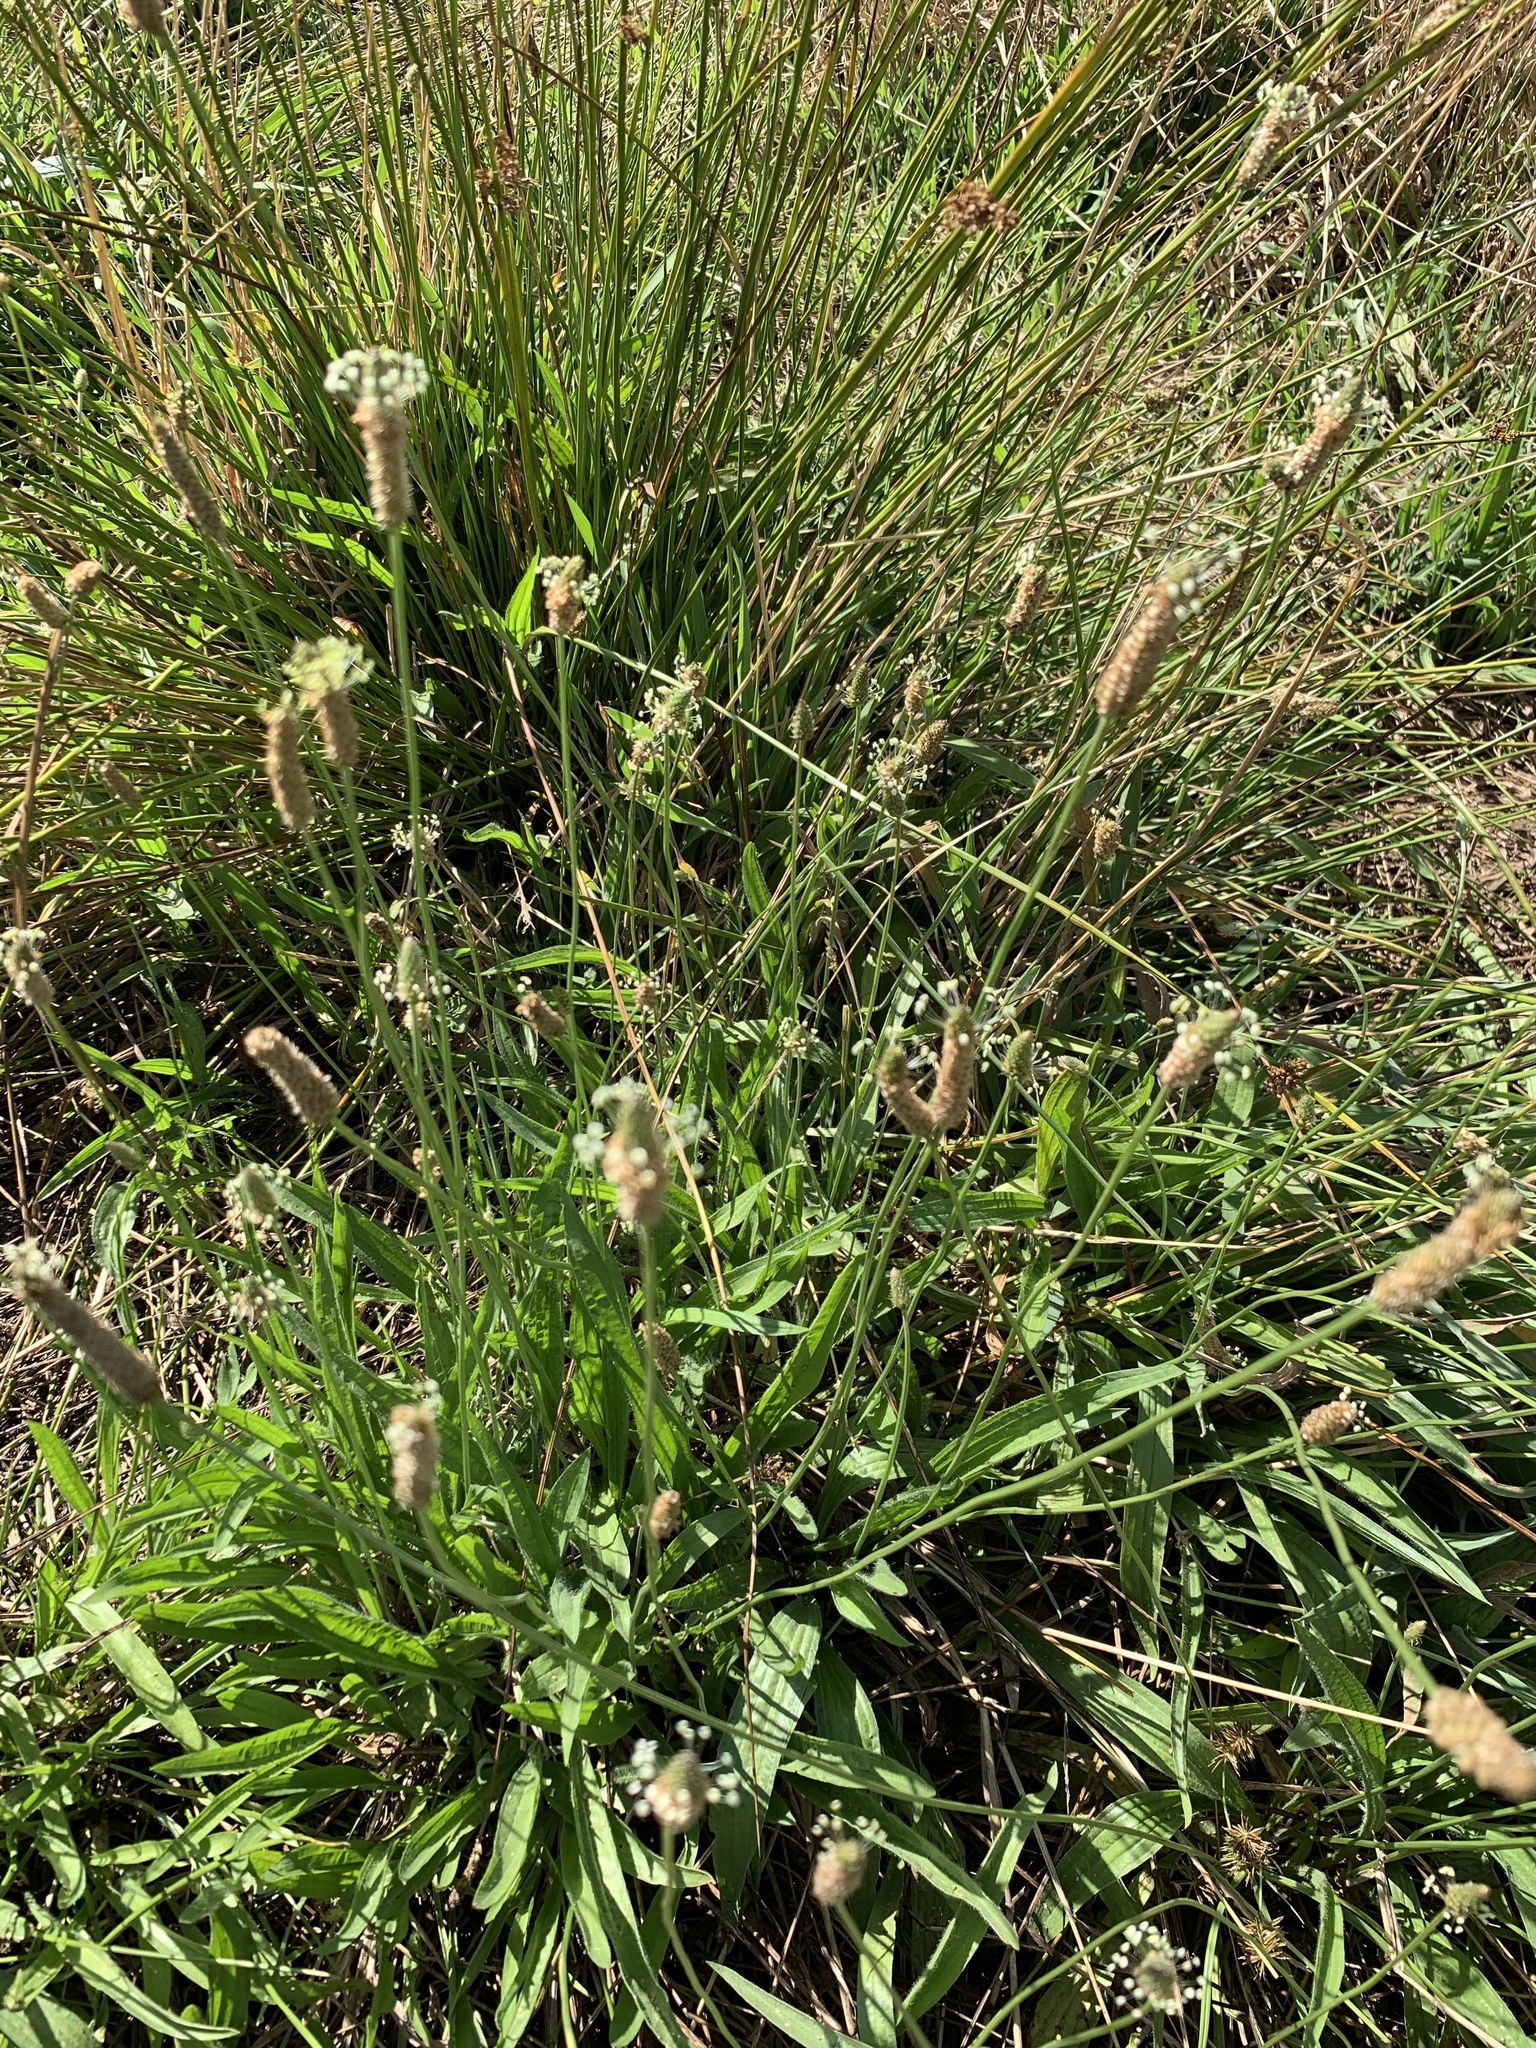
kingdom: Plantae
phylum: Tracheophyta
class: Magnoliopsida
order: Lamiales
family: Plantaginaceae
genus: Plantago
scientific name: Plantago lanceolata
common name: Ribwort plantain
